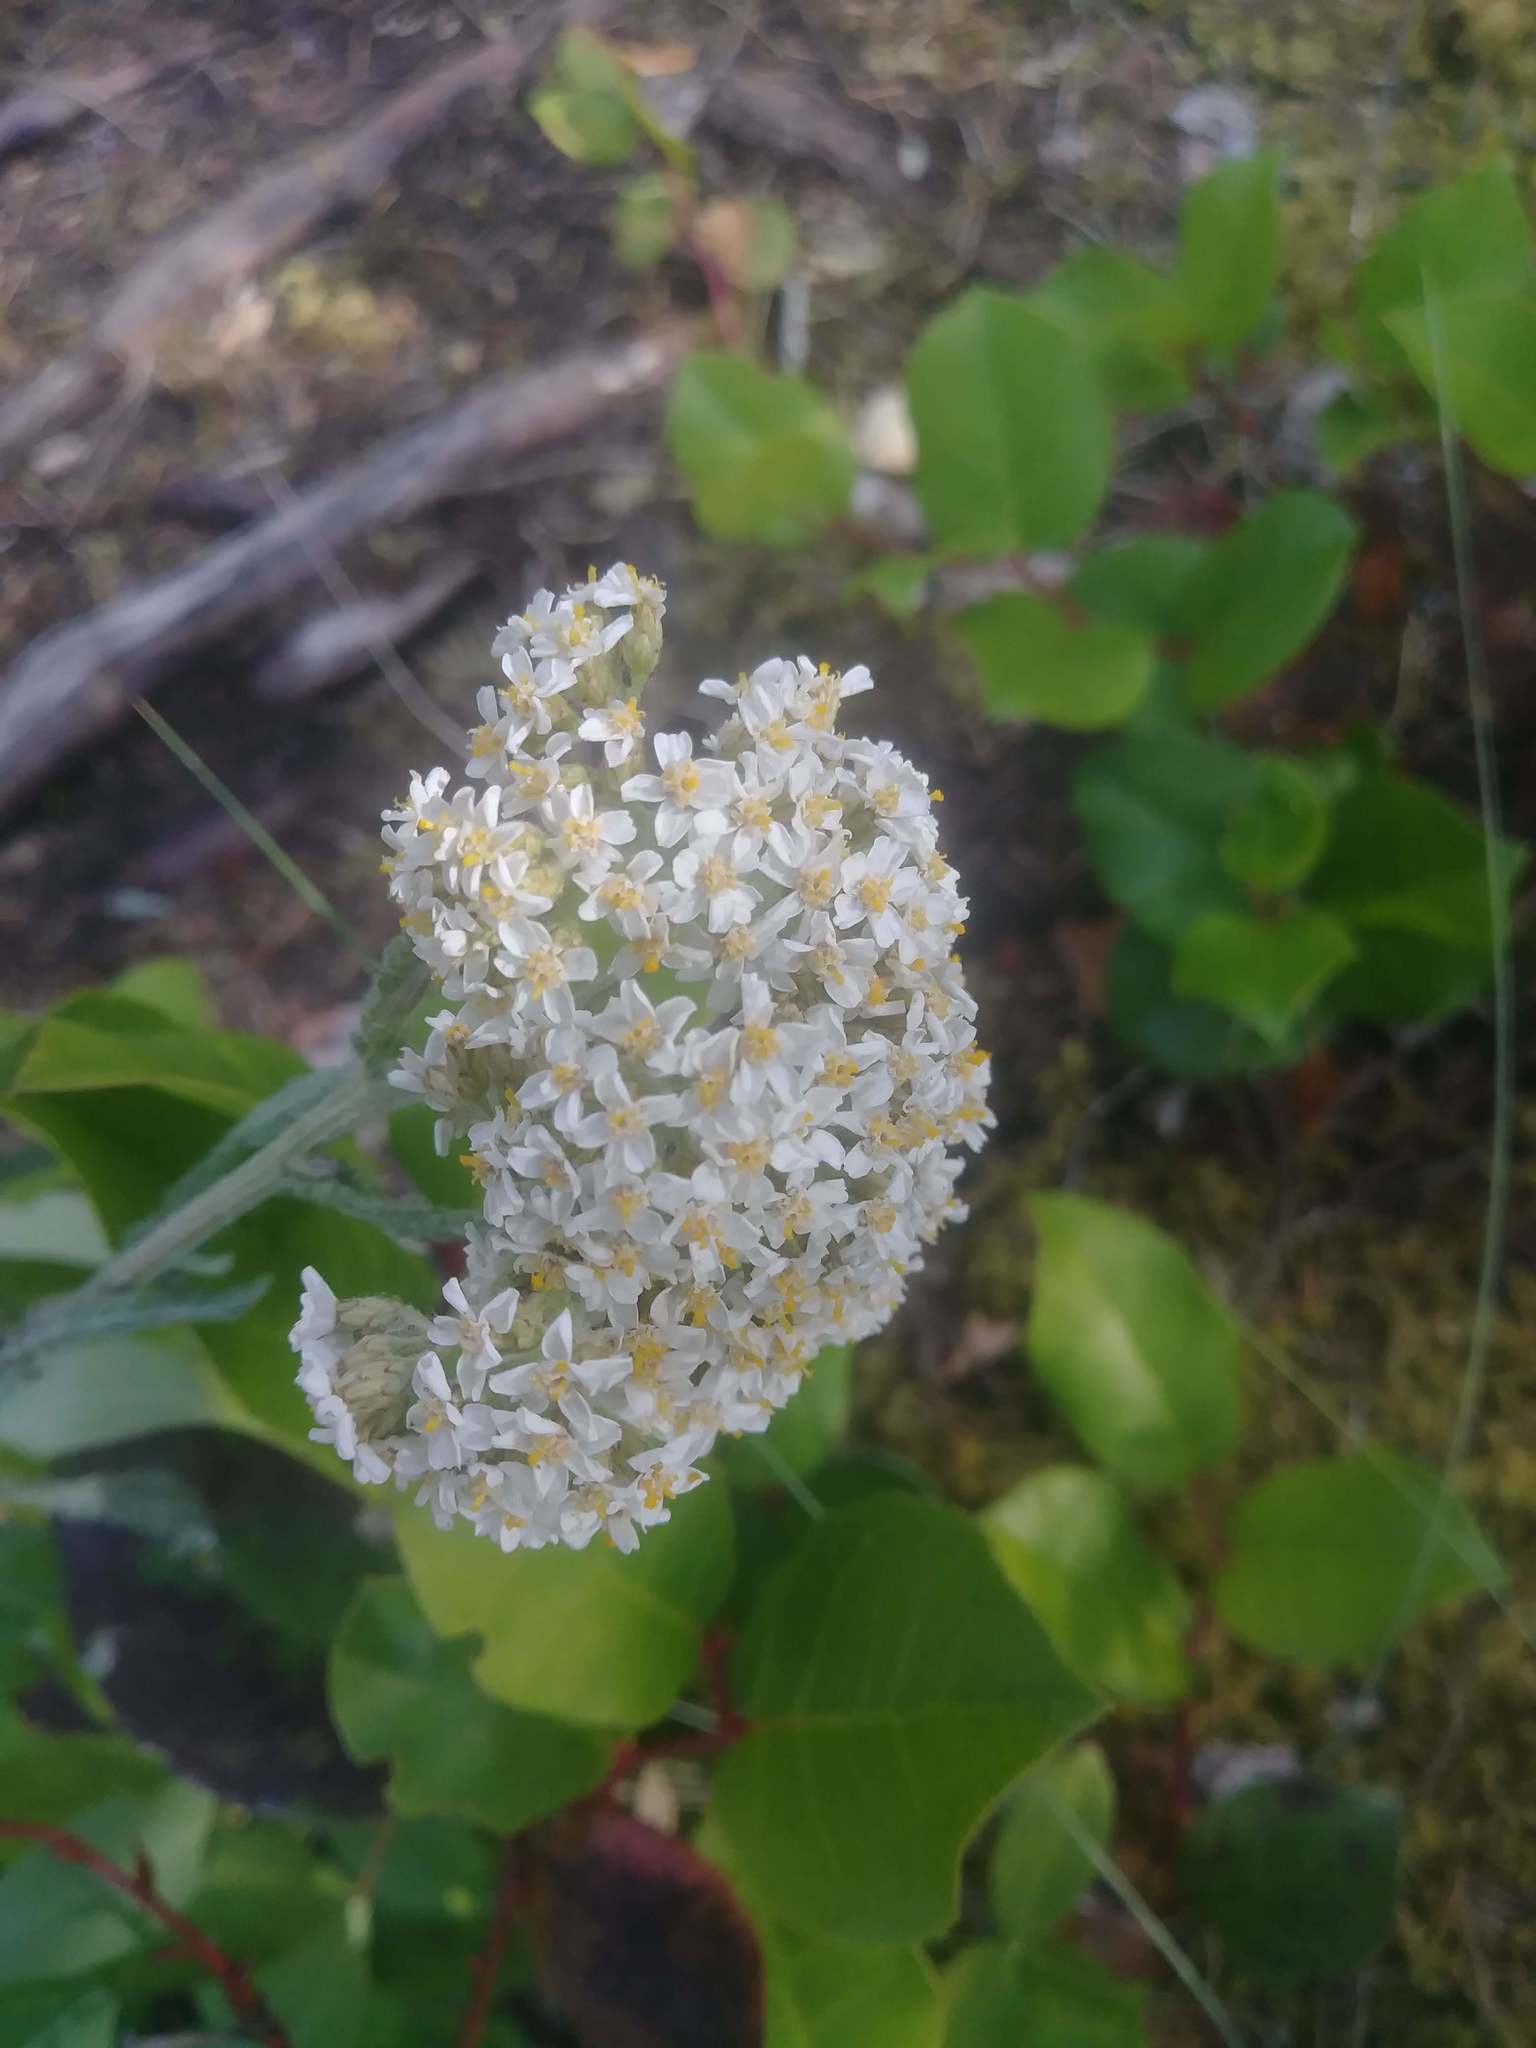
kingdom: Plantae
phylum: Tracheophyta
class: Magnoliopsida
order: Asterales
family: Asteraceae
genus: Achillea
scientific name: Achillea millefolium
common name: Yarrow
